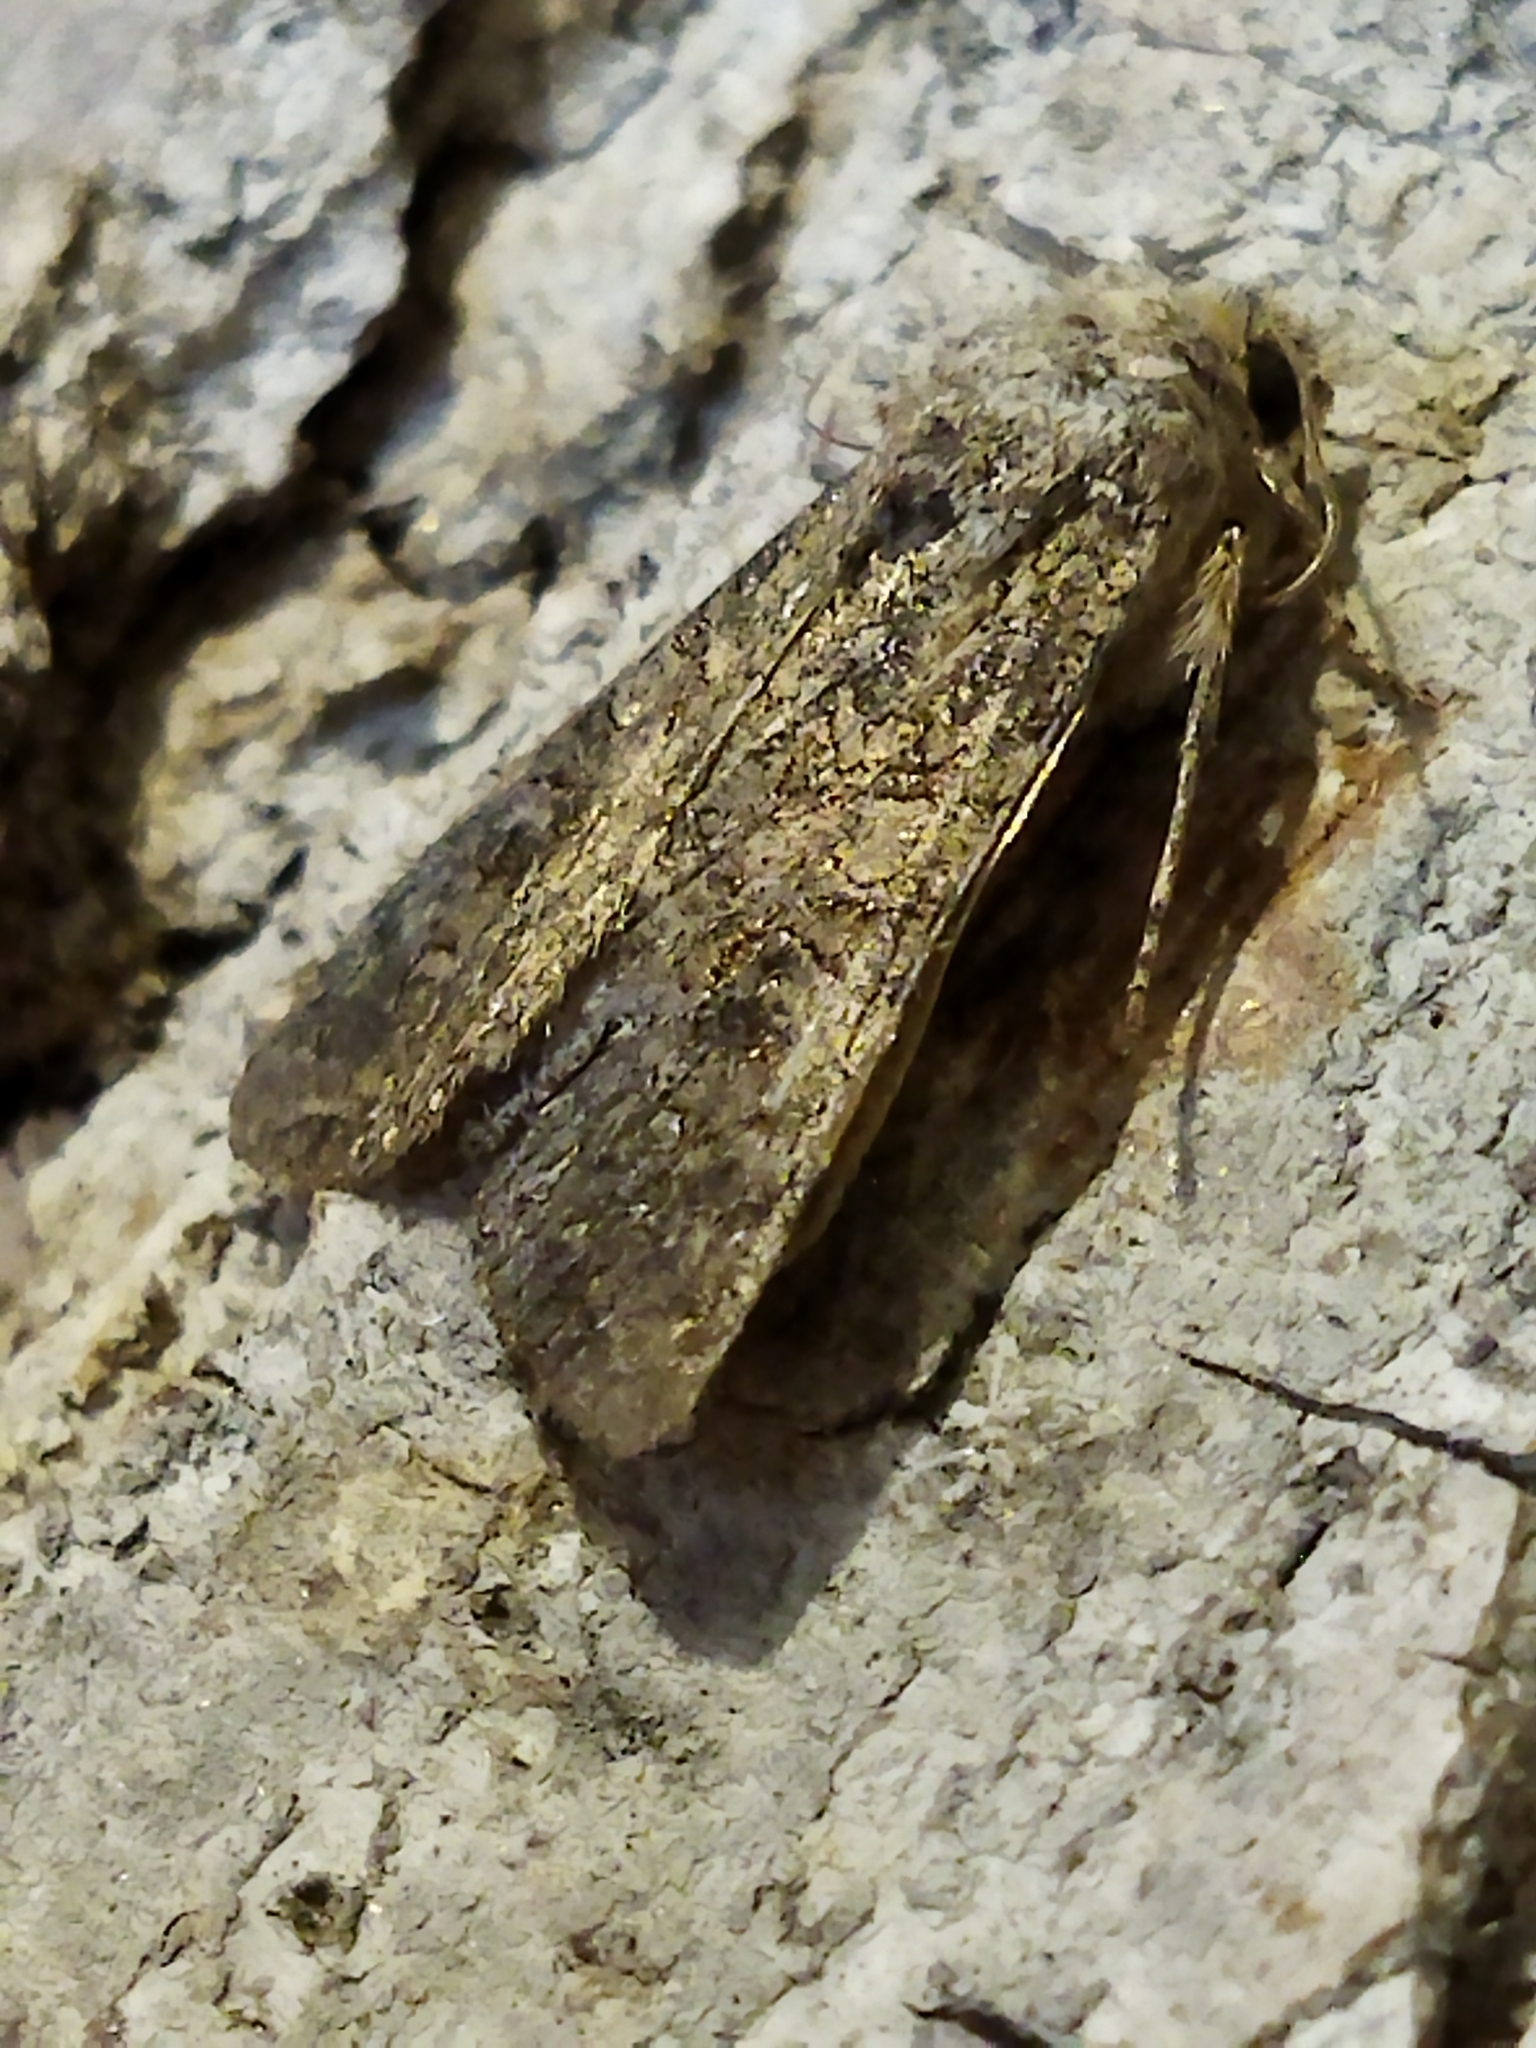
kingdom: Animalia
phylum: Arthropoda
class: Insecta
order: Lepidoptera
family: Noctuidae
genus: Anarta
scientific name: Anarta trifolii
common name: Clover cutworm moth
